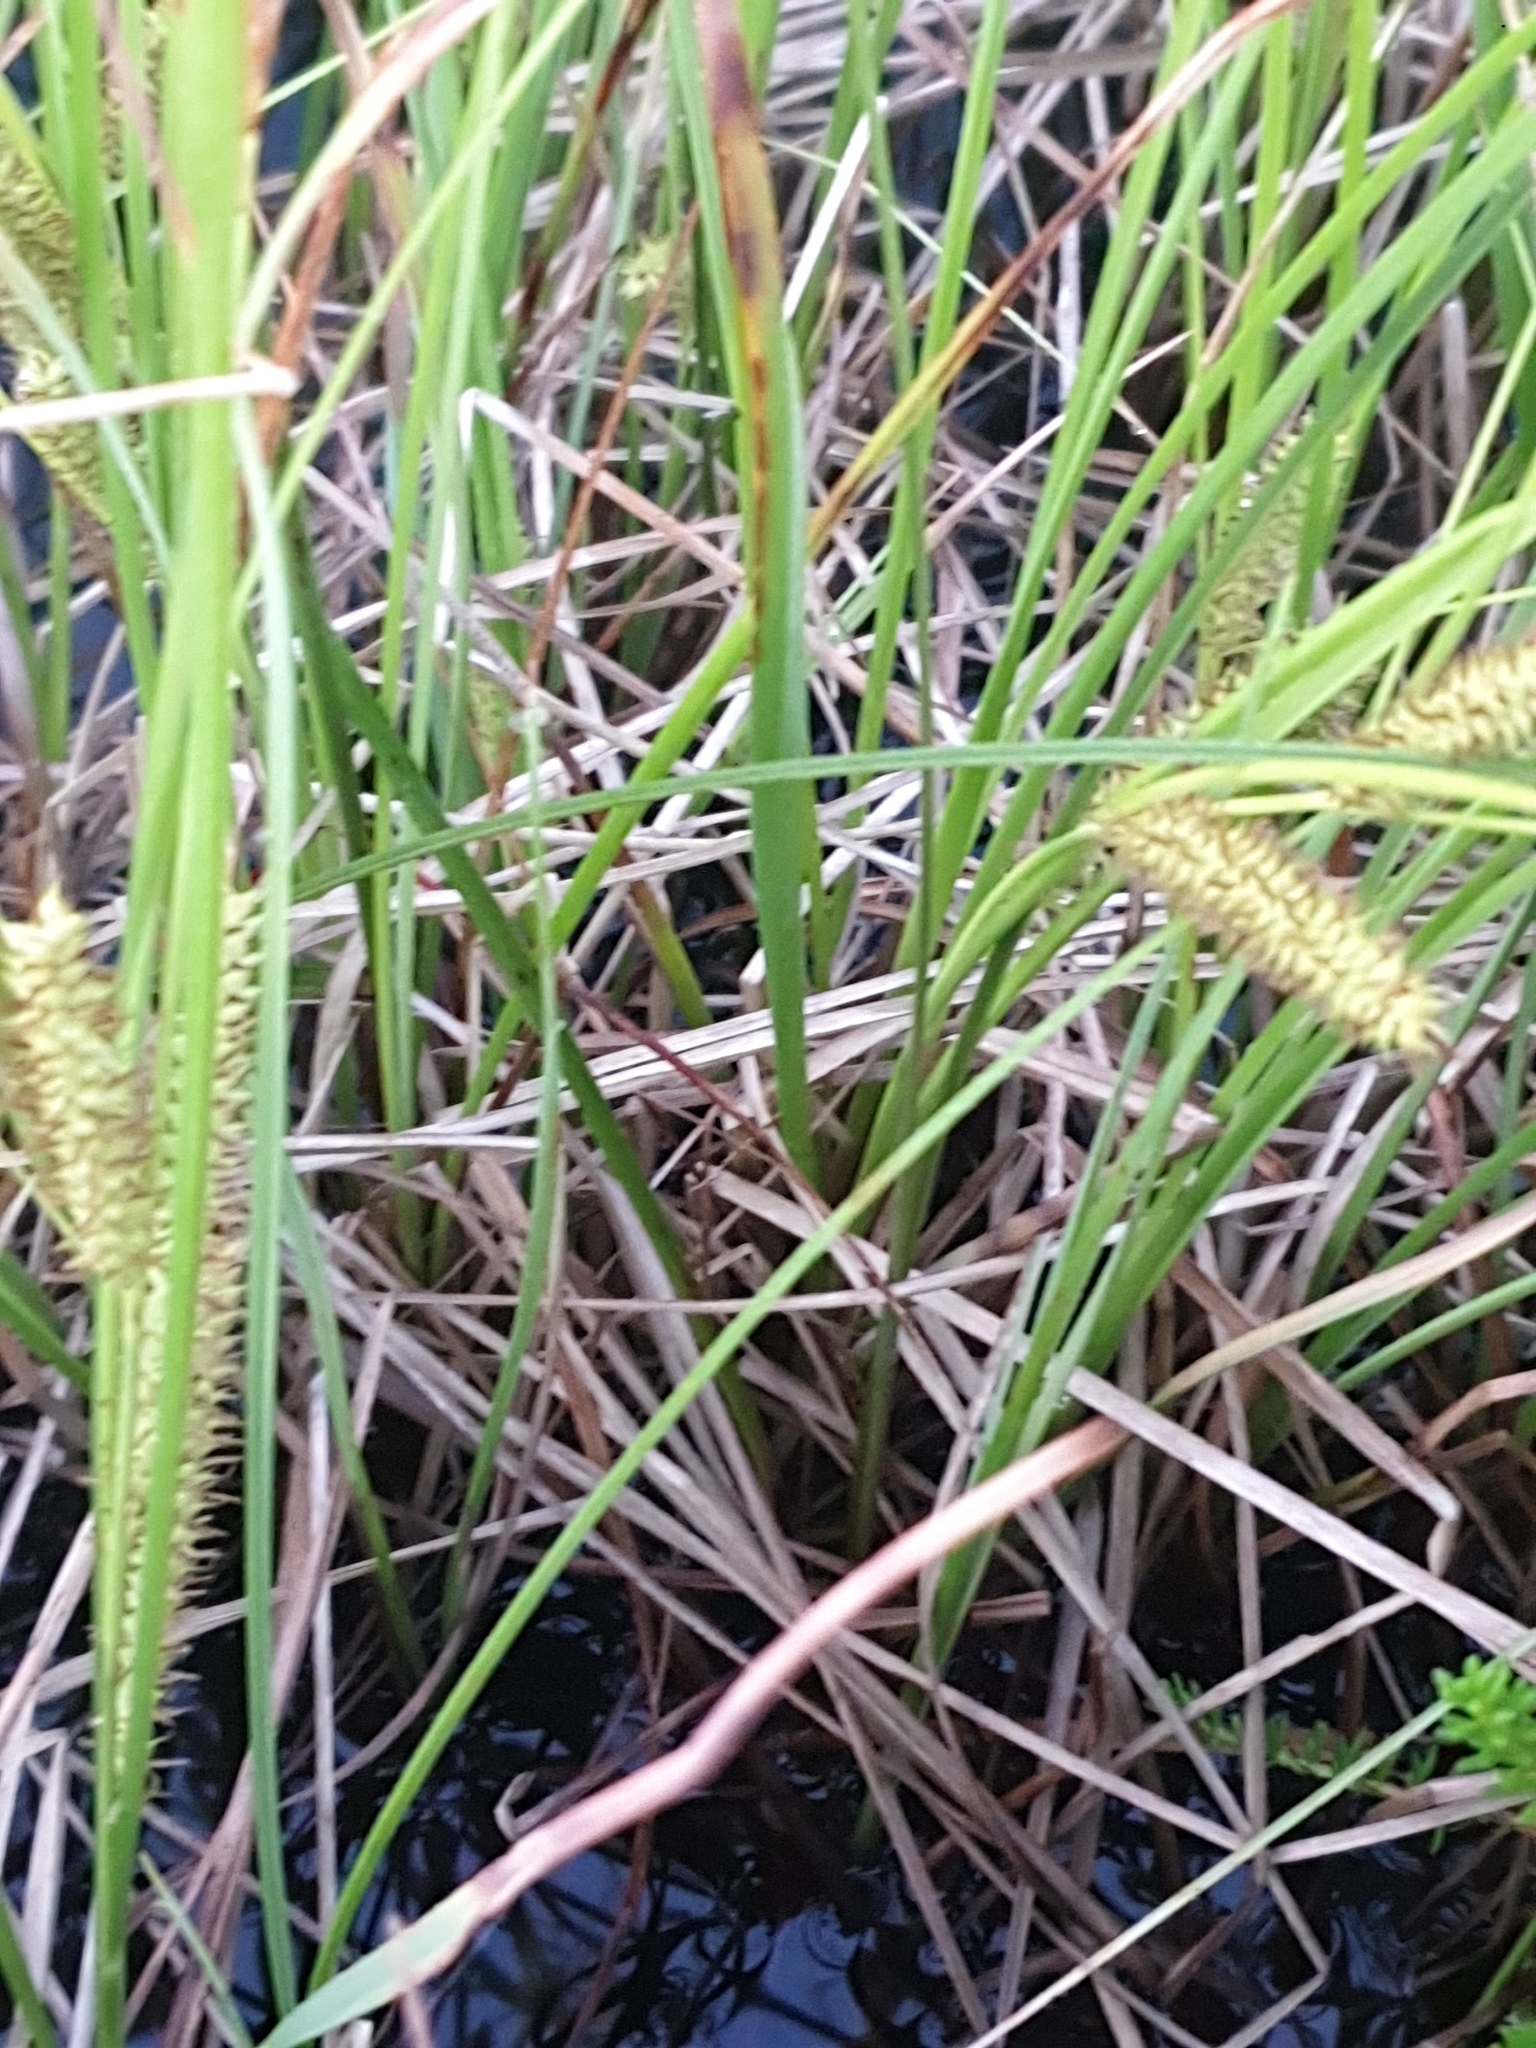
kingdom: Plantae
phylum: Tracheophyta
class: Liliopsida
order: Poales
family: Cyperaceae
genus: Carex
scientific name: Carex rostrata
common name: Bottle sedge
